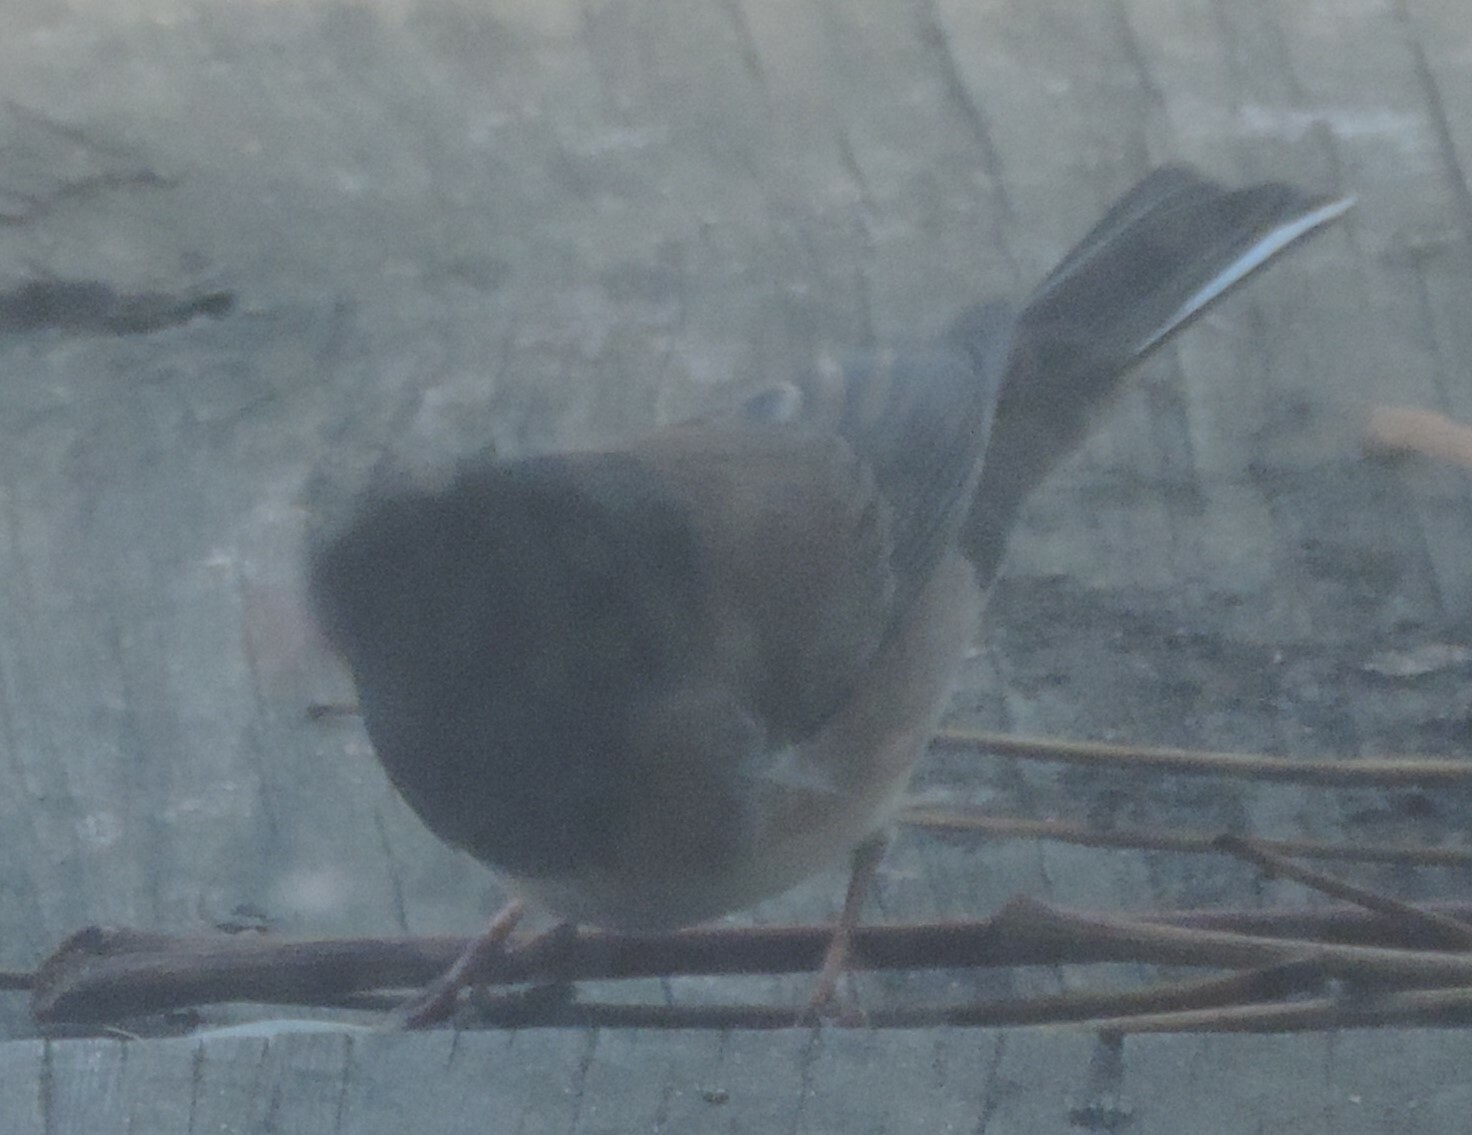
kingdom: Animalia
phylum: Chordata
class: Aves
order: Passeriformes
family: Passerellidae
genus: Junco
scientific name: Junco hyemalis
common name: Dark-eyed junco
